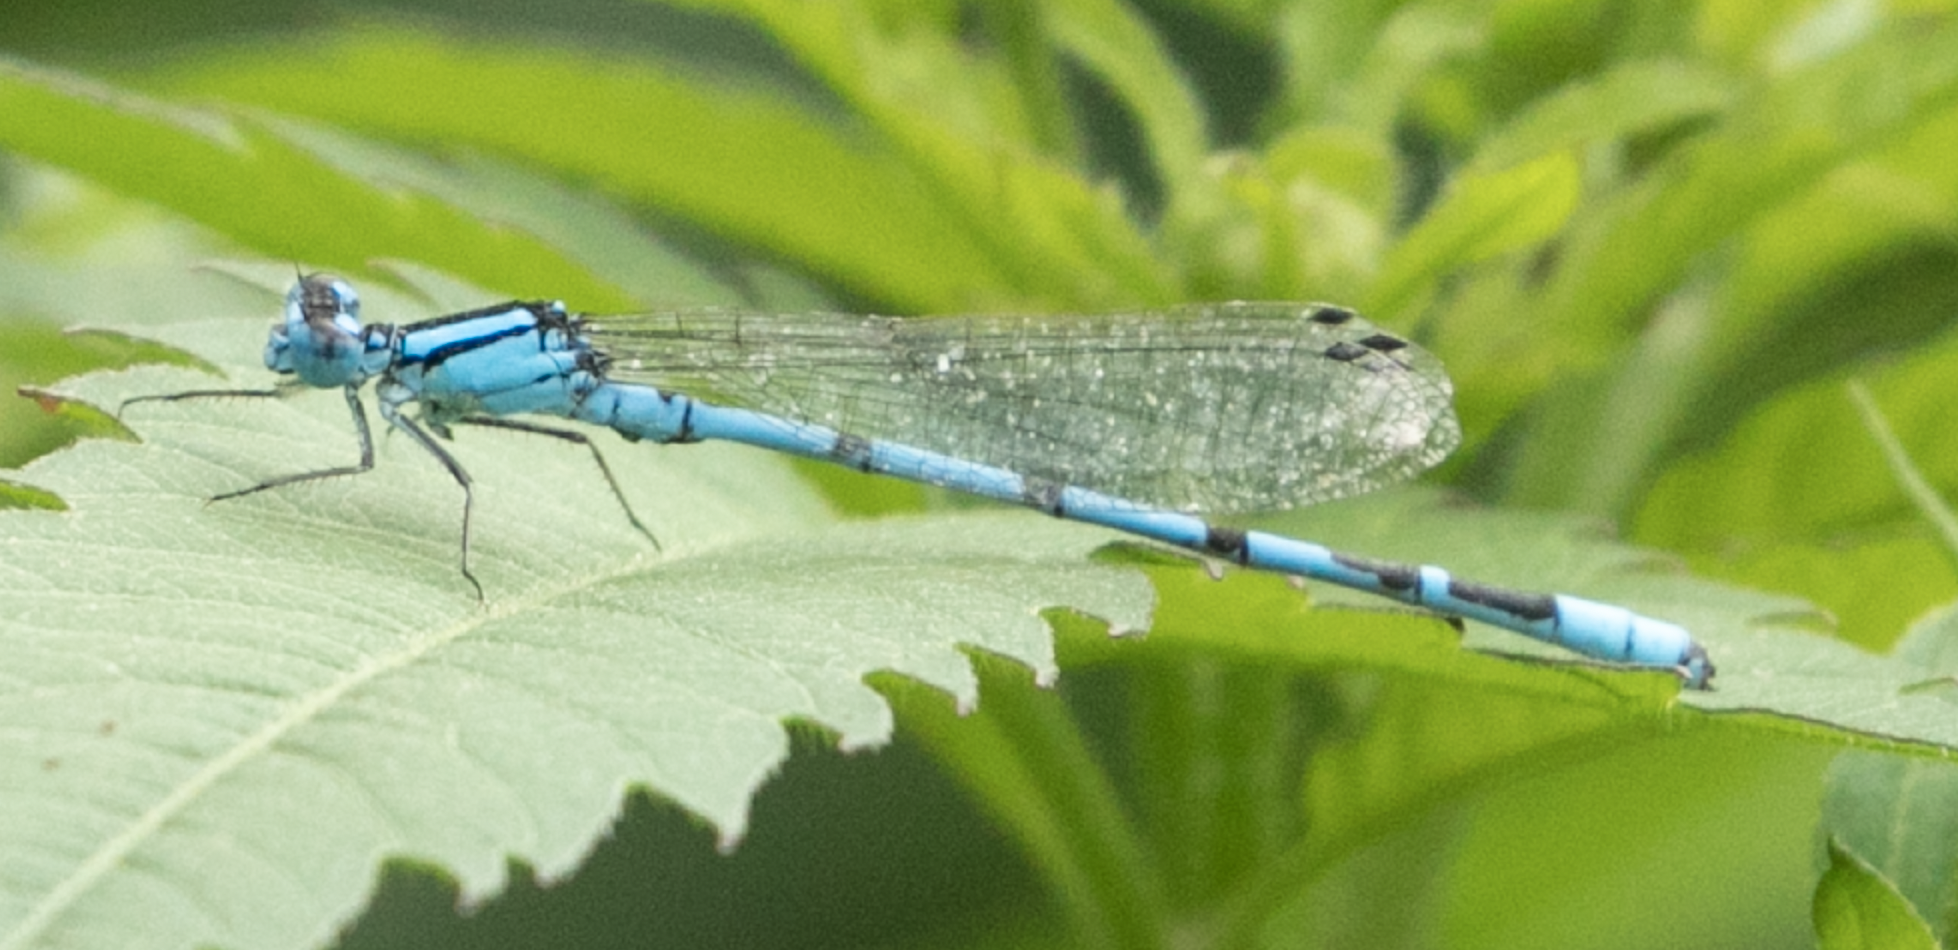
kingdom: Animalia
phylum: Arthropoda
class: Insecta
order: Odonata
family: Coenagrionidae
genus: Enallagma
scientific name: Enallagma cyathigerum
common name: Common blue damselfly
